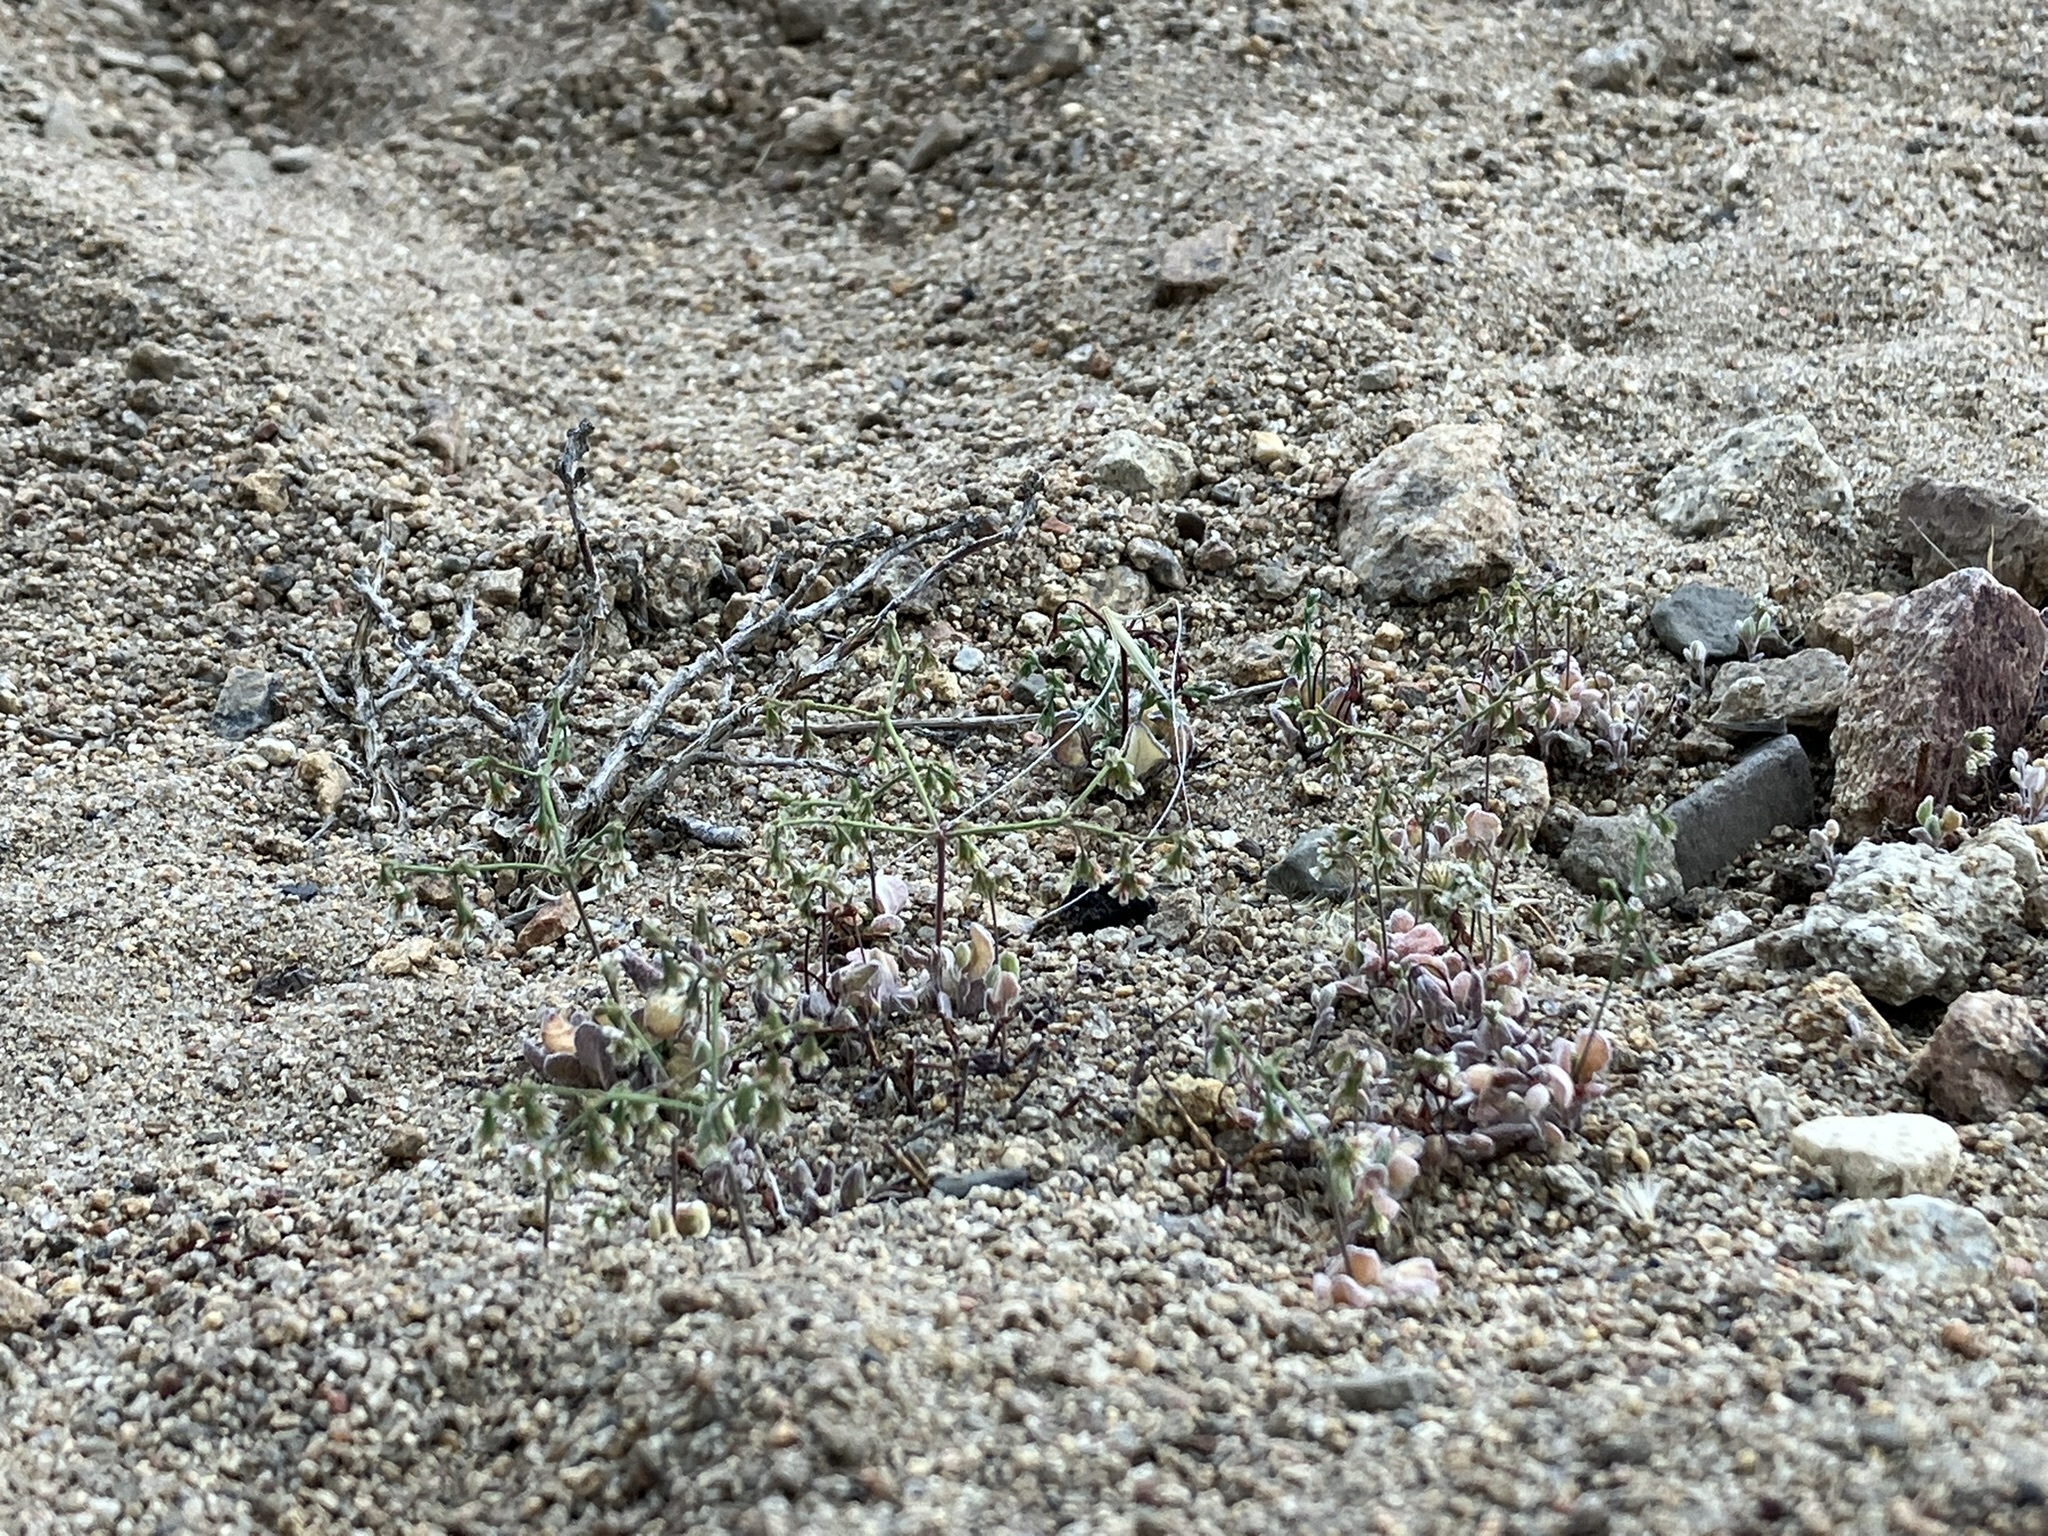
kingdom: Plantae
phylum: Tracheophyta
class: Magnoliopsida
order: Caryophyllales
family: Polygonaceae
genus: Eriogonum
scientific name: Eriogonum cernuum
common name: Nodding wild buckwheat
